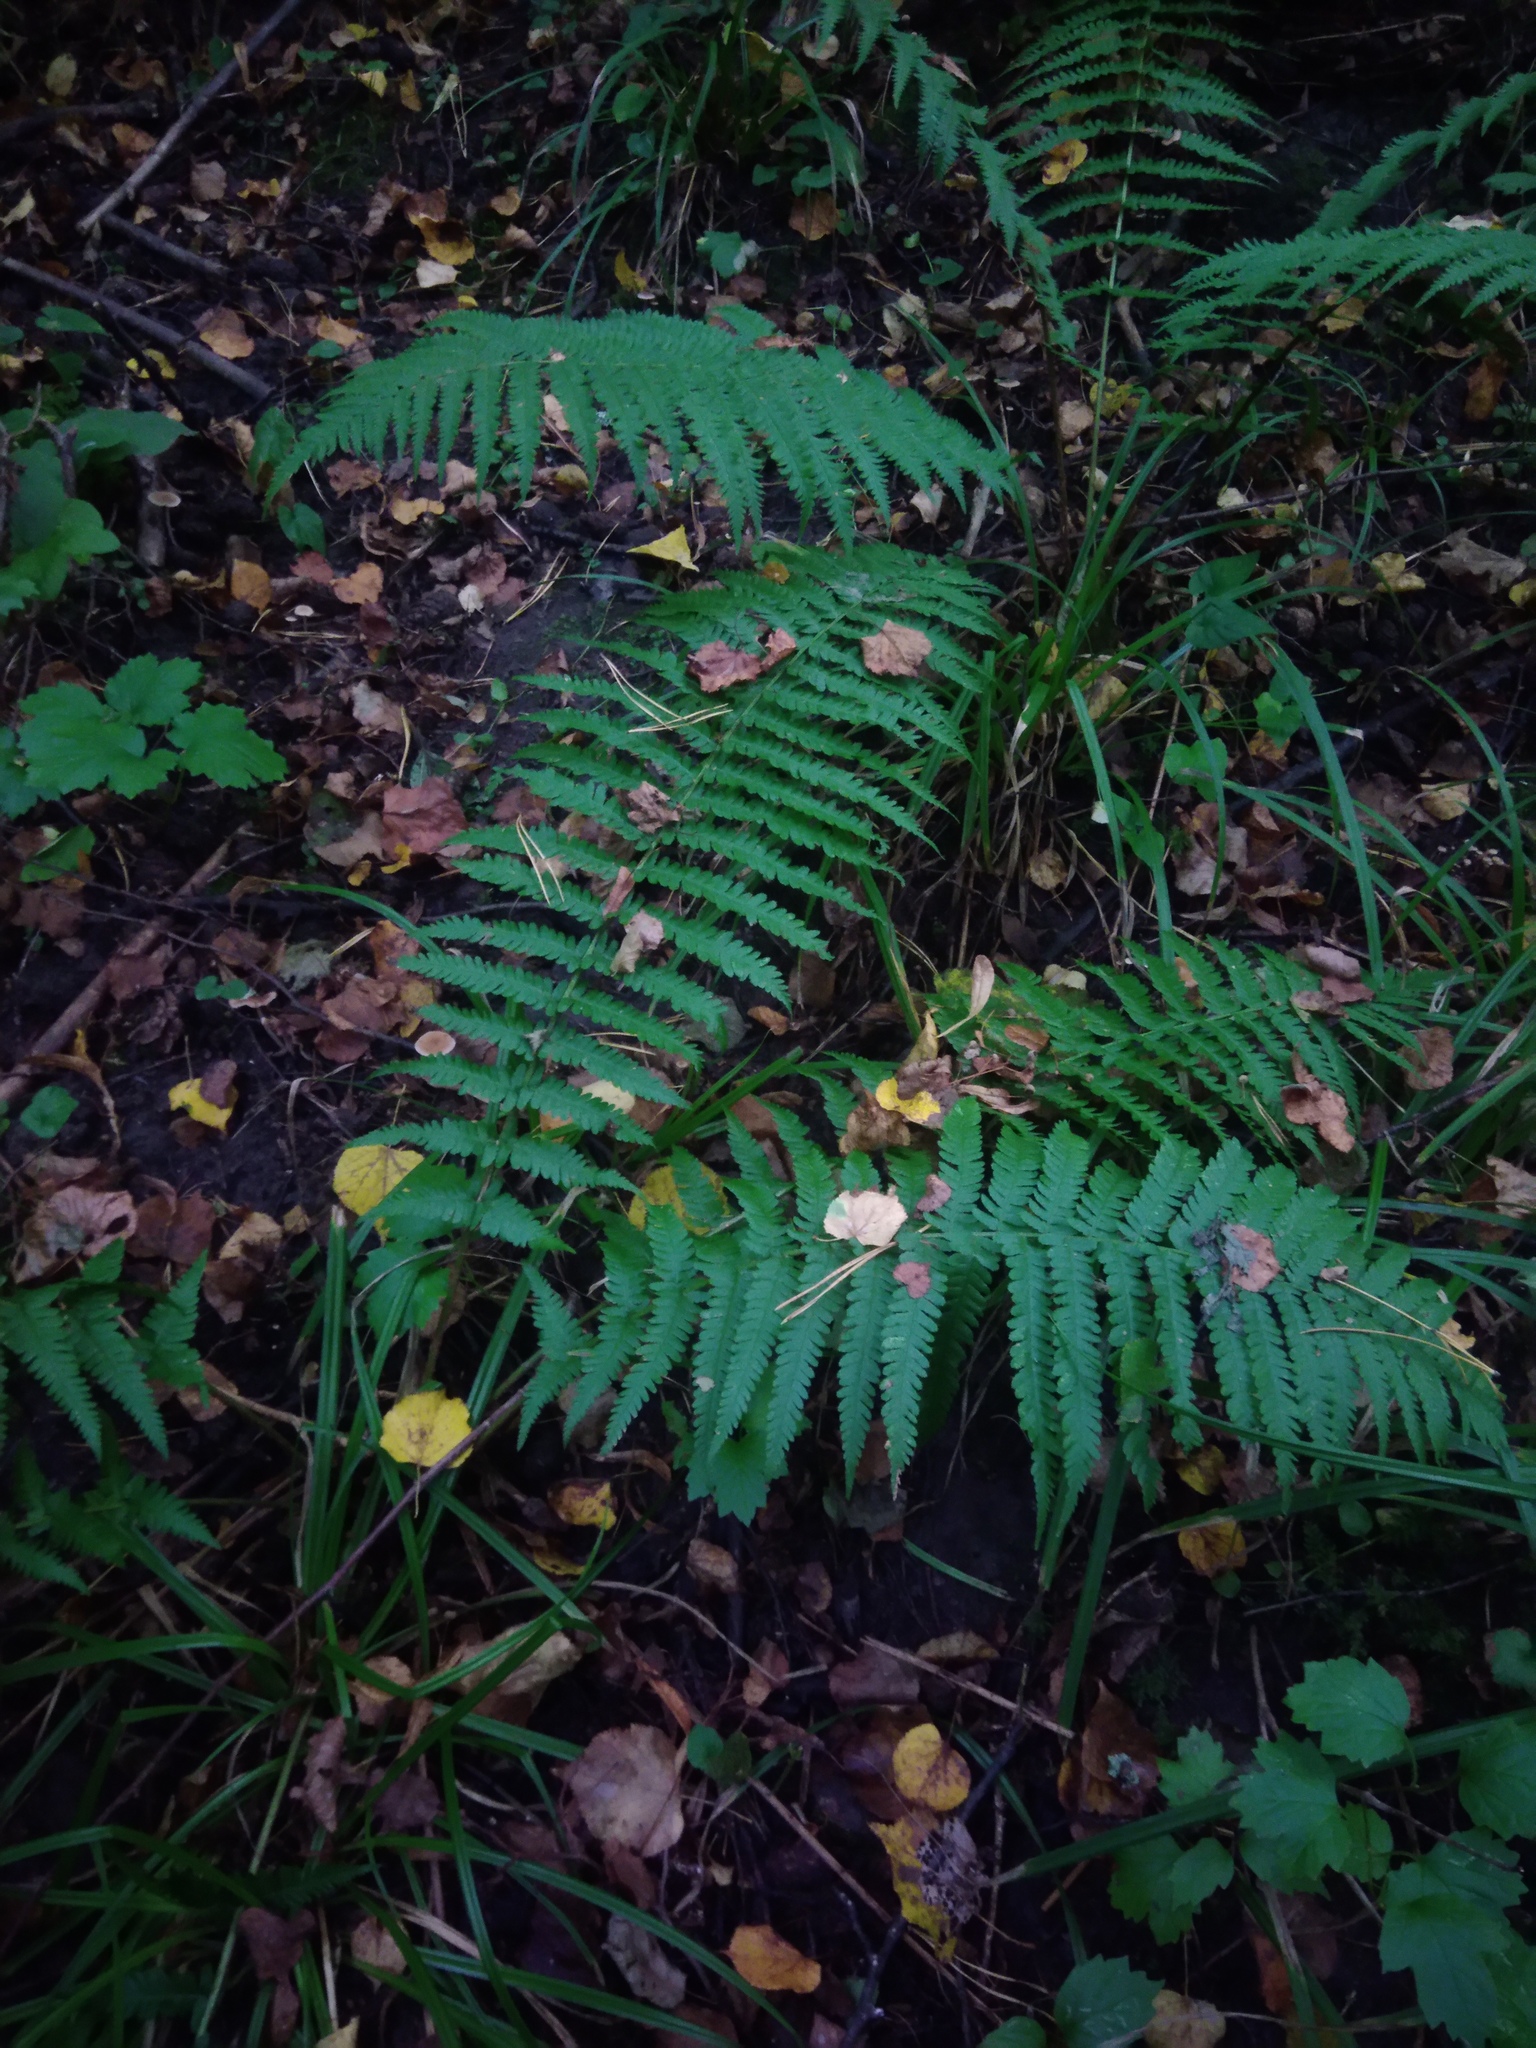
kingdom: Plantae
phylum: Tracheophyta
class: Polypodiopsida
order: Polypodiales
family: Dryopteridaceae
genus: Dryopteris
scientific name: Dryopteris filix-mas
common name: Male fern
